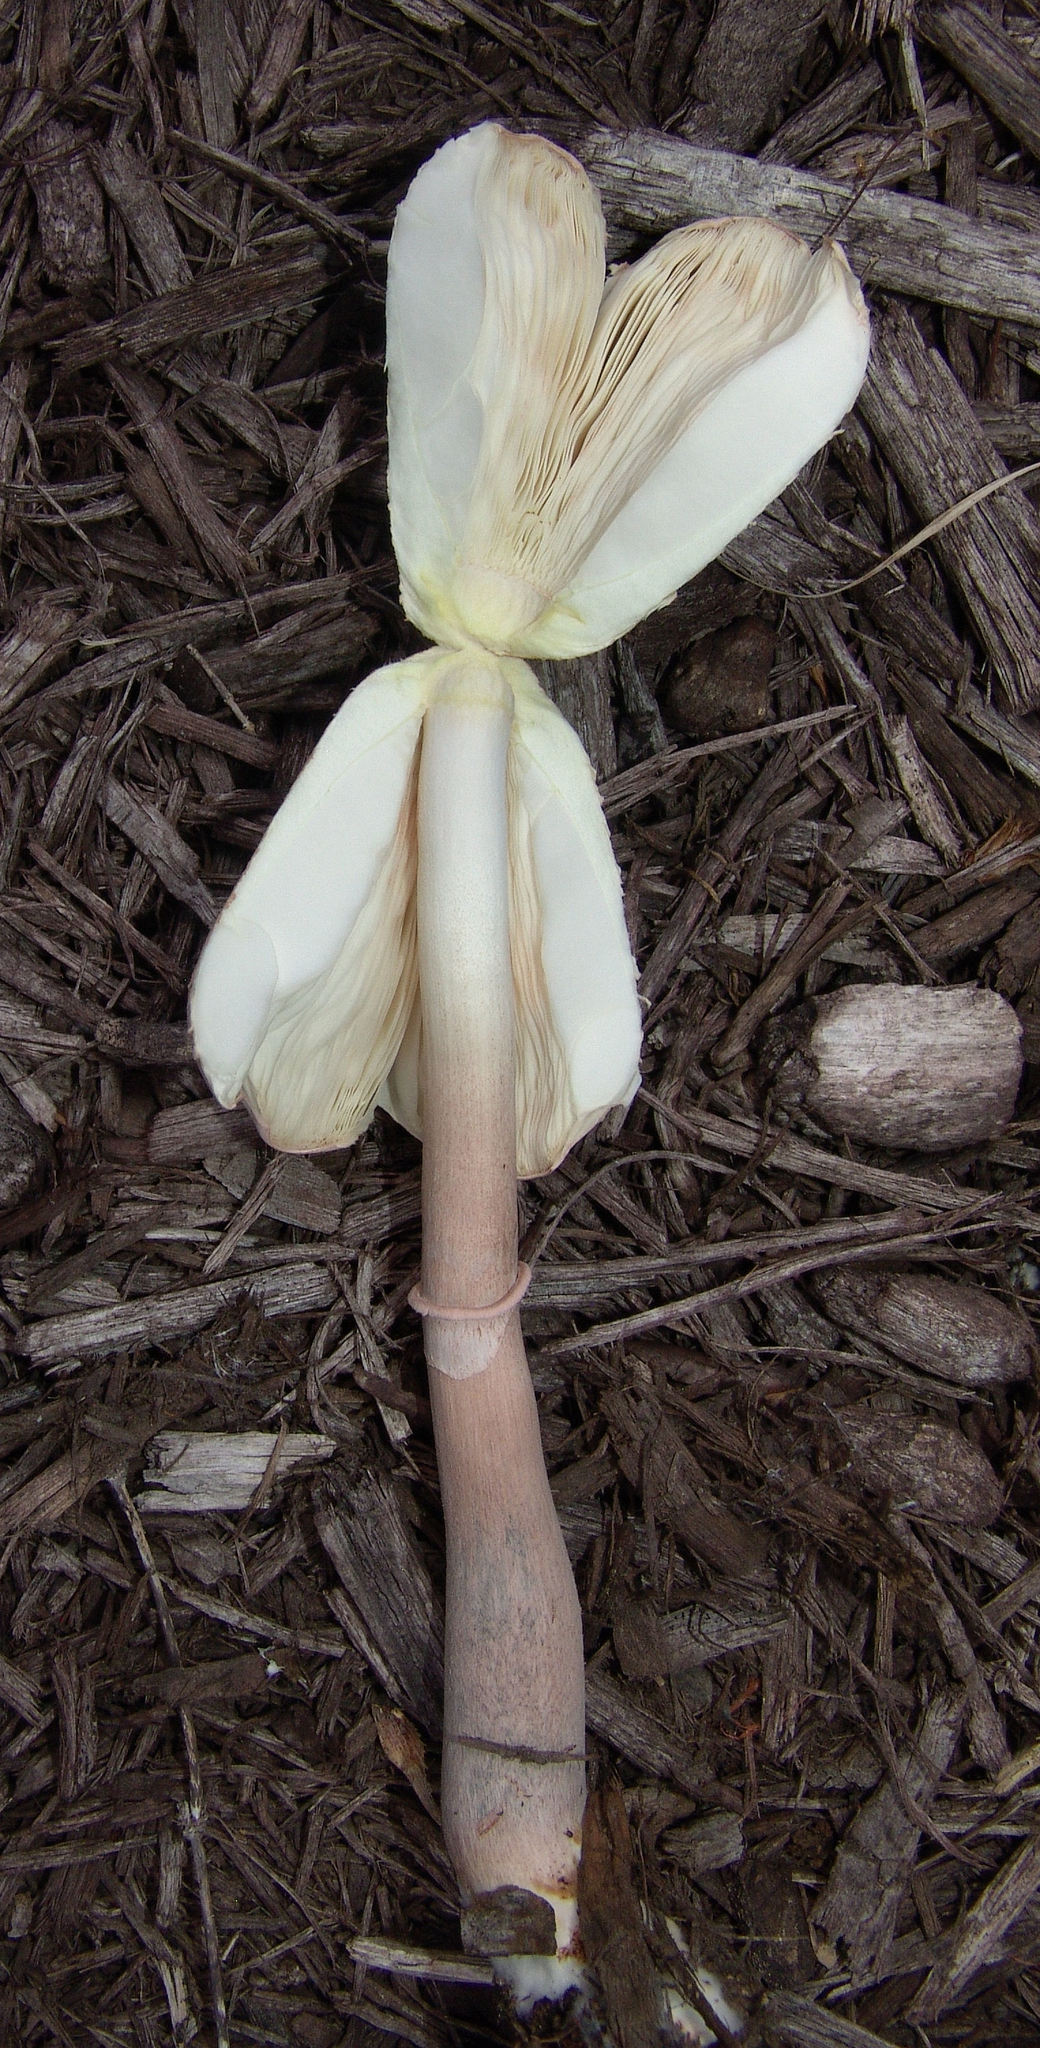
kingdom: Fungi
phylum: Basidiomycota
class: Agaricomycetes
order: Agaricales
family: Agaricaceae
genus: Leucoagaricus
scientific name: Leucoagaricus americanus
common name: Reddening lepiota
